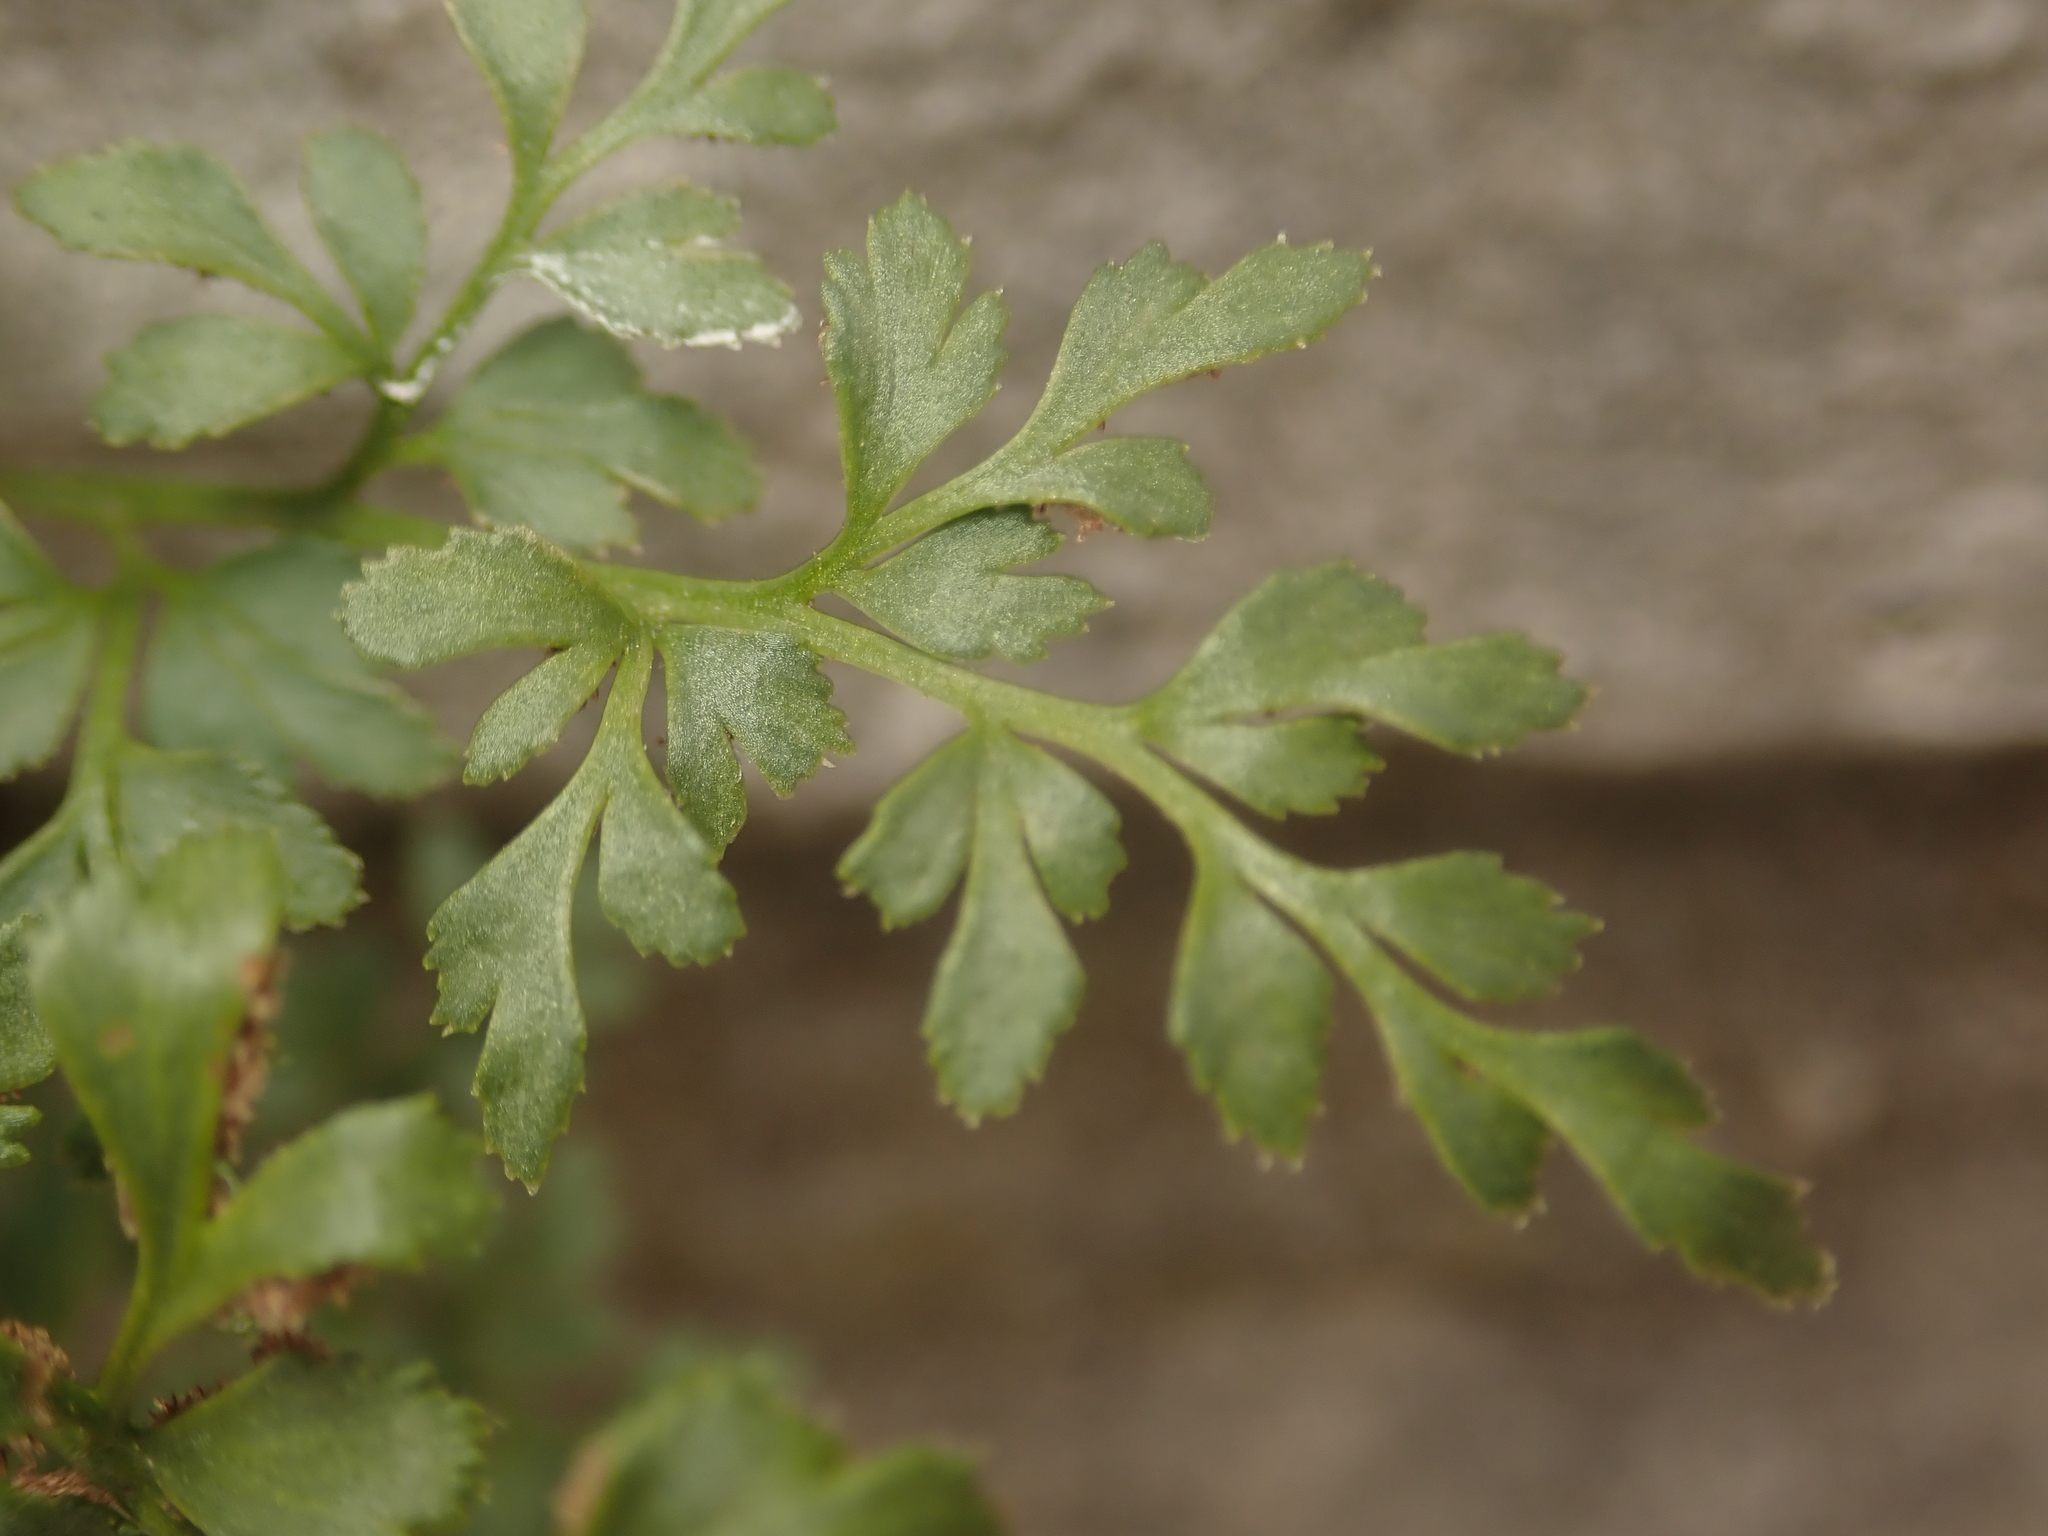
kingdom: Plantae
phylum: Tracheophyta
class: Polypodiopsida
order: Polypodiales
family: Aspleniaceae
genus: Asplenium
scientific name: Asplenium ruta-muraria
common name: Wall-rue
